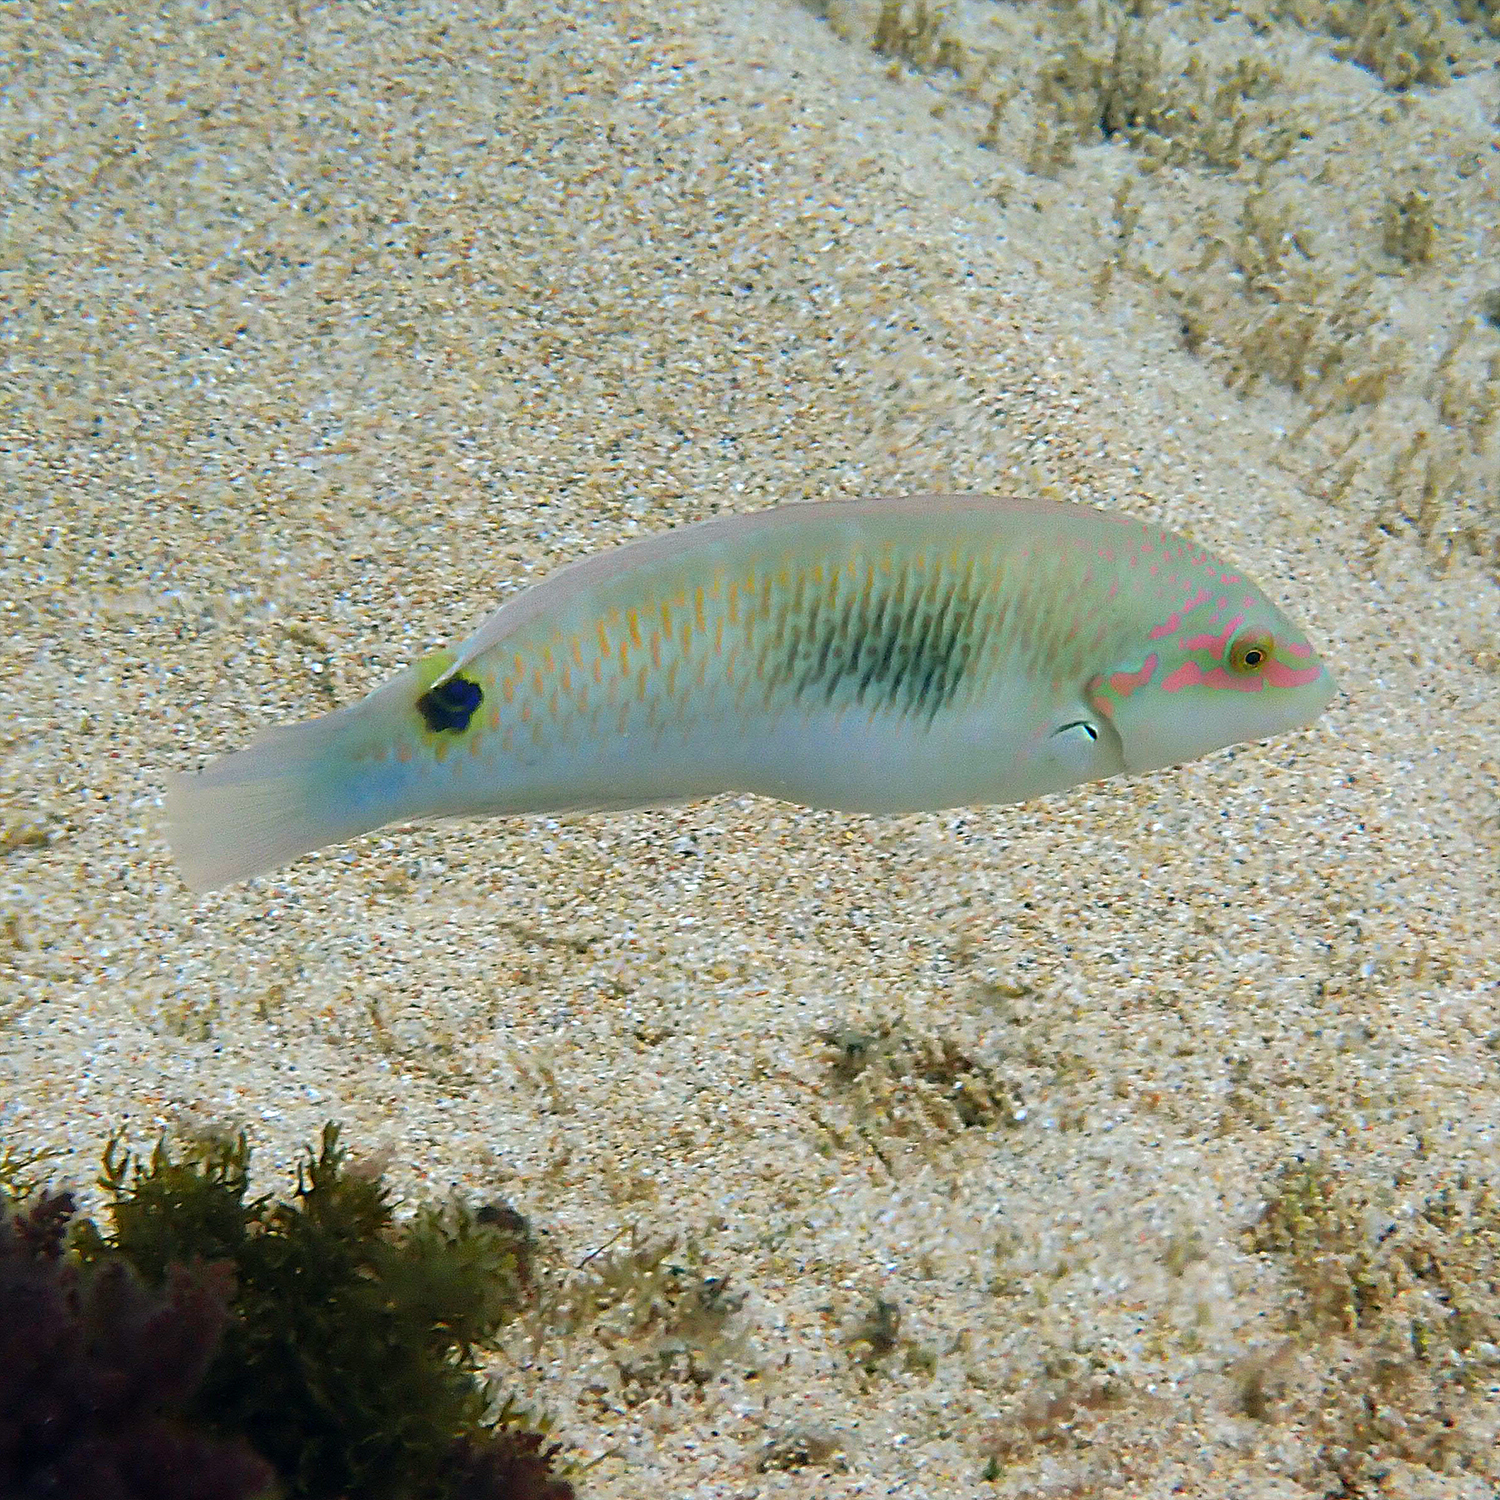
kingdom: Animalia
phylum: Chordata
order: Perciformes
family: Labridae
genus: Halichoeres
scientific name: Halichoeres trimaculatus
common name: Three-spot wrasse
